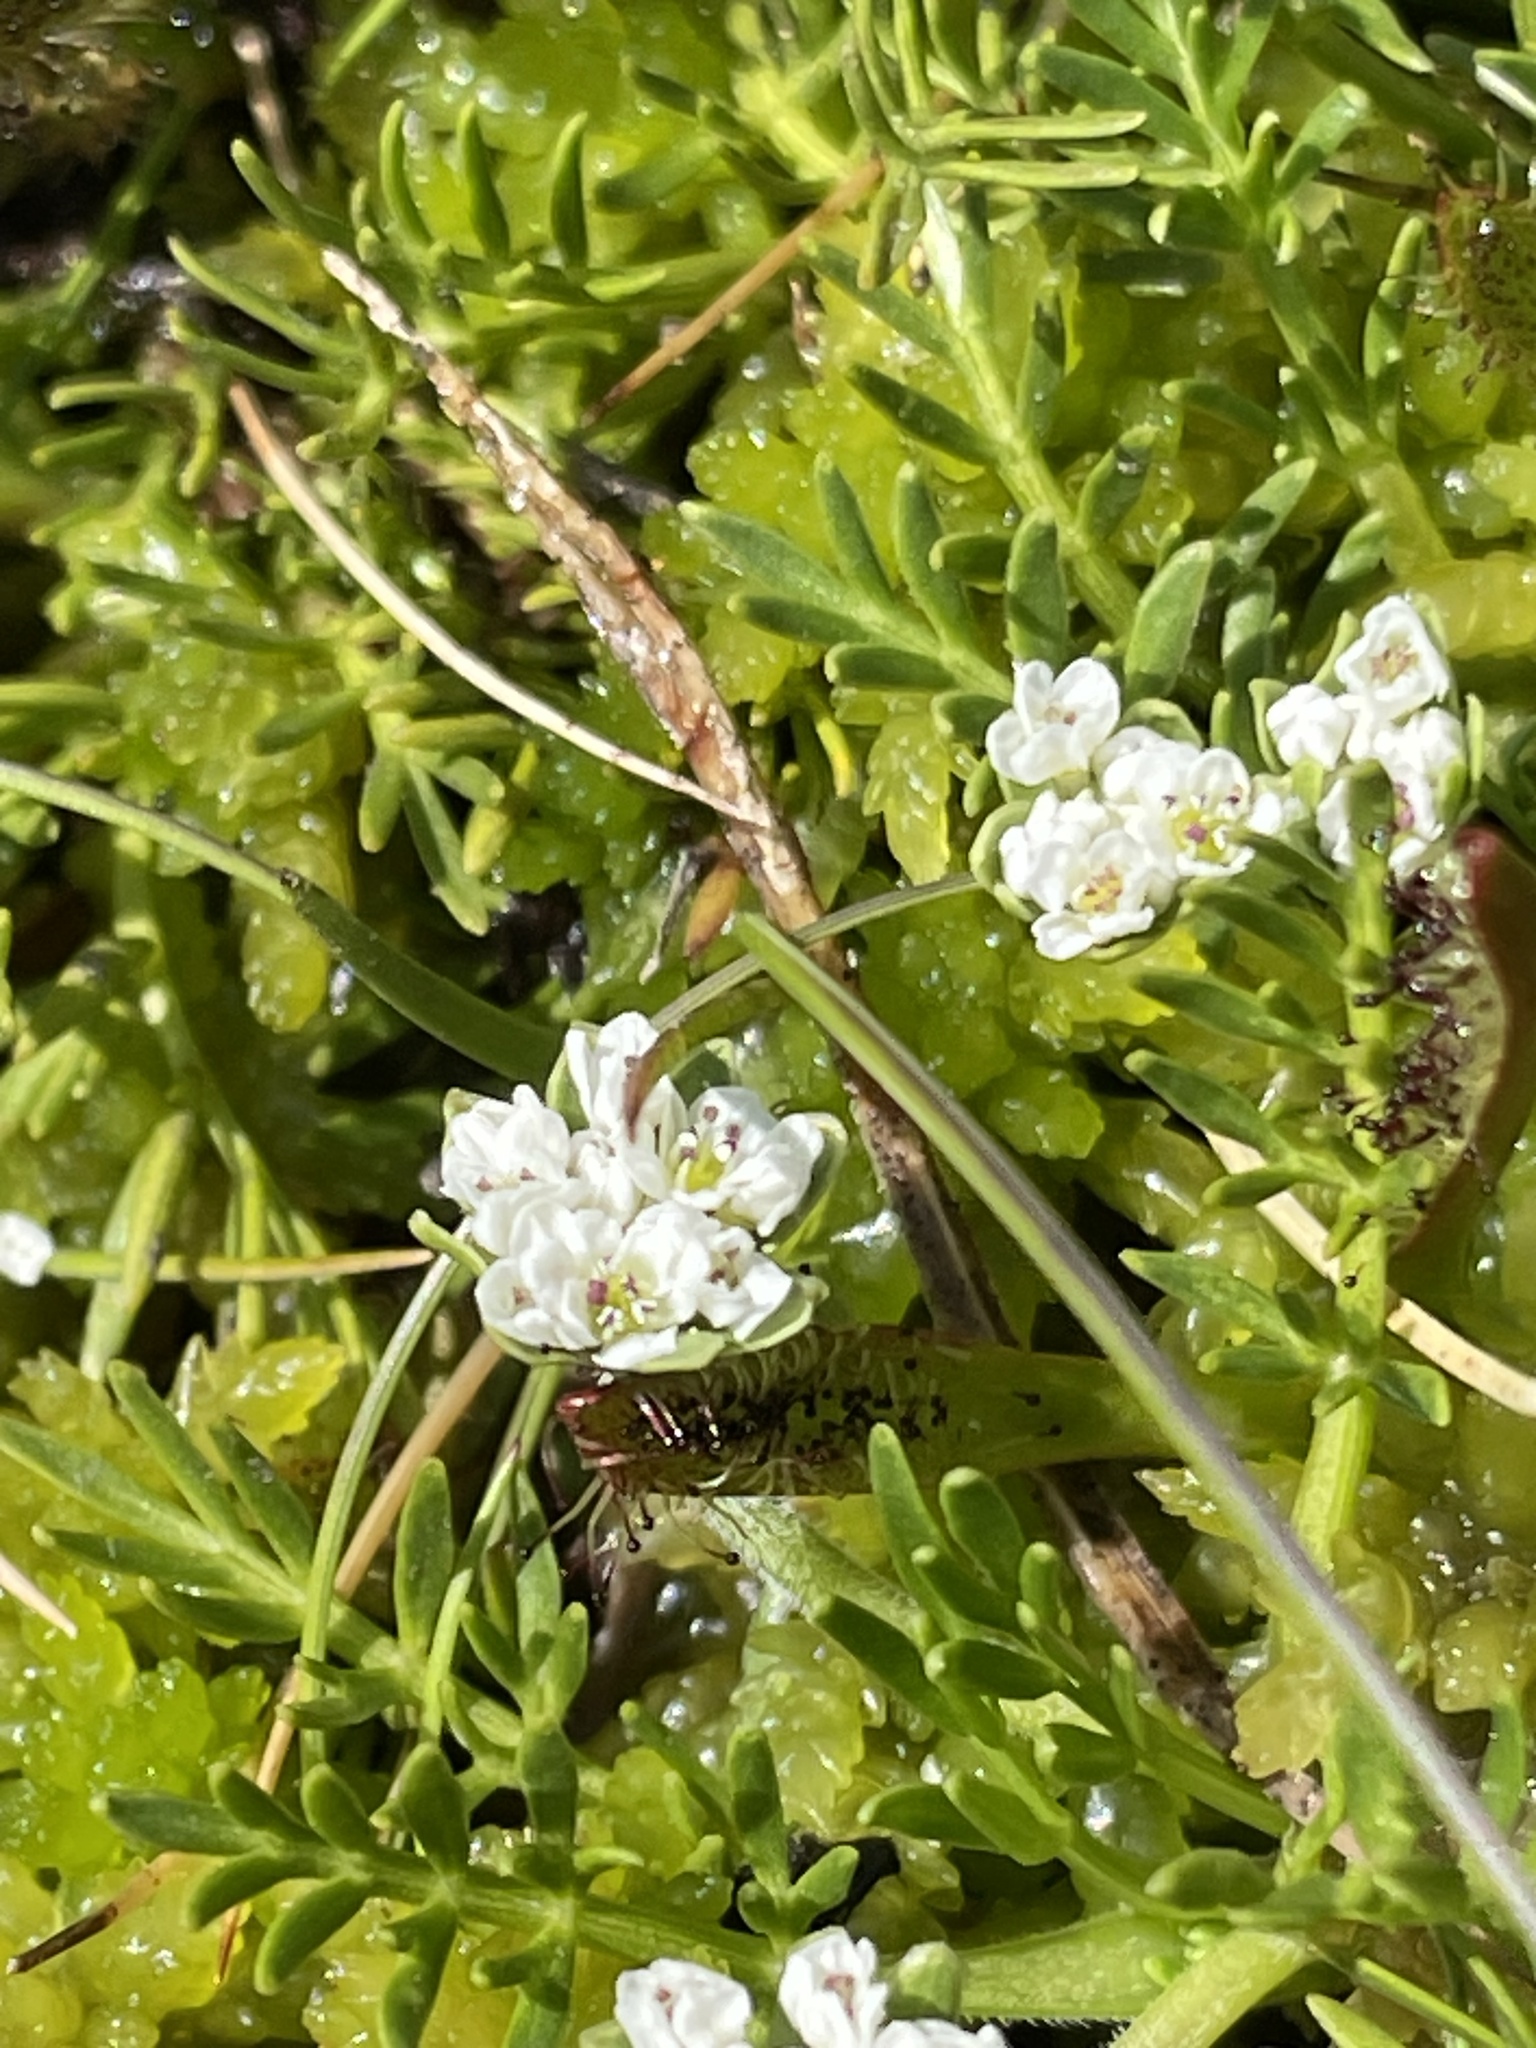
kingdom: Plantae
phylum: Tracheophyta
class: Magnoliopsida
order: Apiales
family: Apiaceae
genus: Chaerophyllum
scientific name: Chaerophyllum pulvinificum
